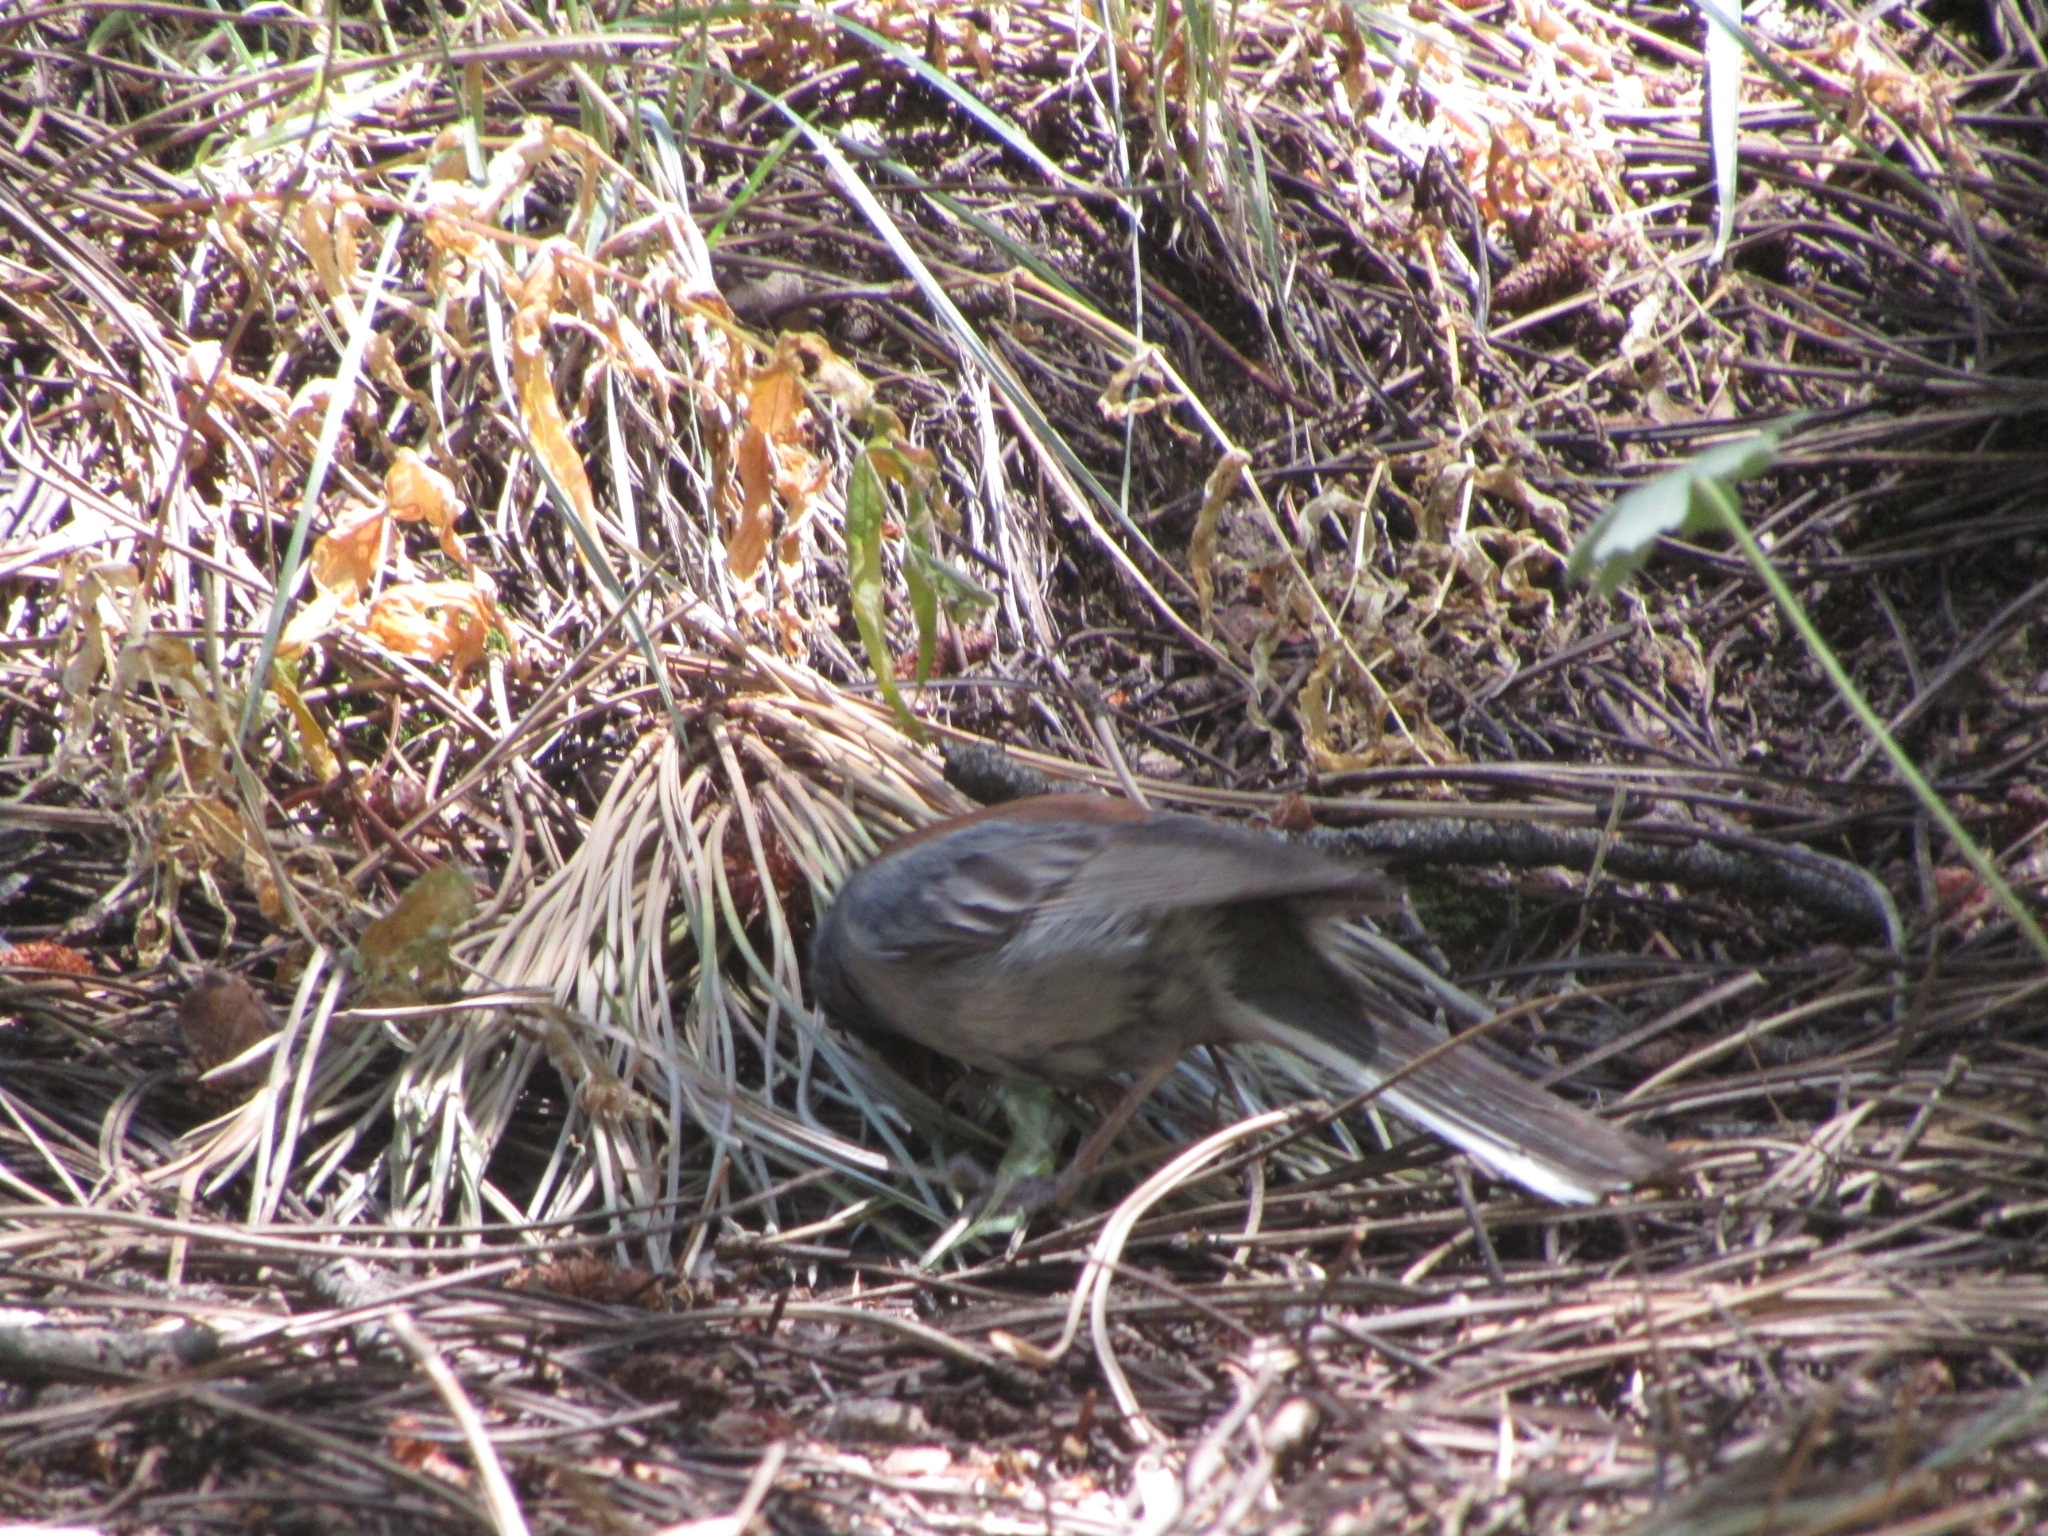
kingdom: Animalia
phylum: Chordata
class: Aves
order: Passeriformes
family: Passerellidae
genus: Junco
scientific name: Junco hyemalis
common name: Dark-eyed junco
